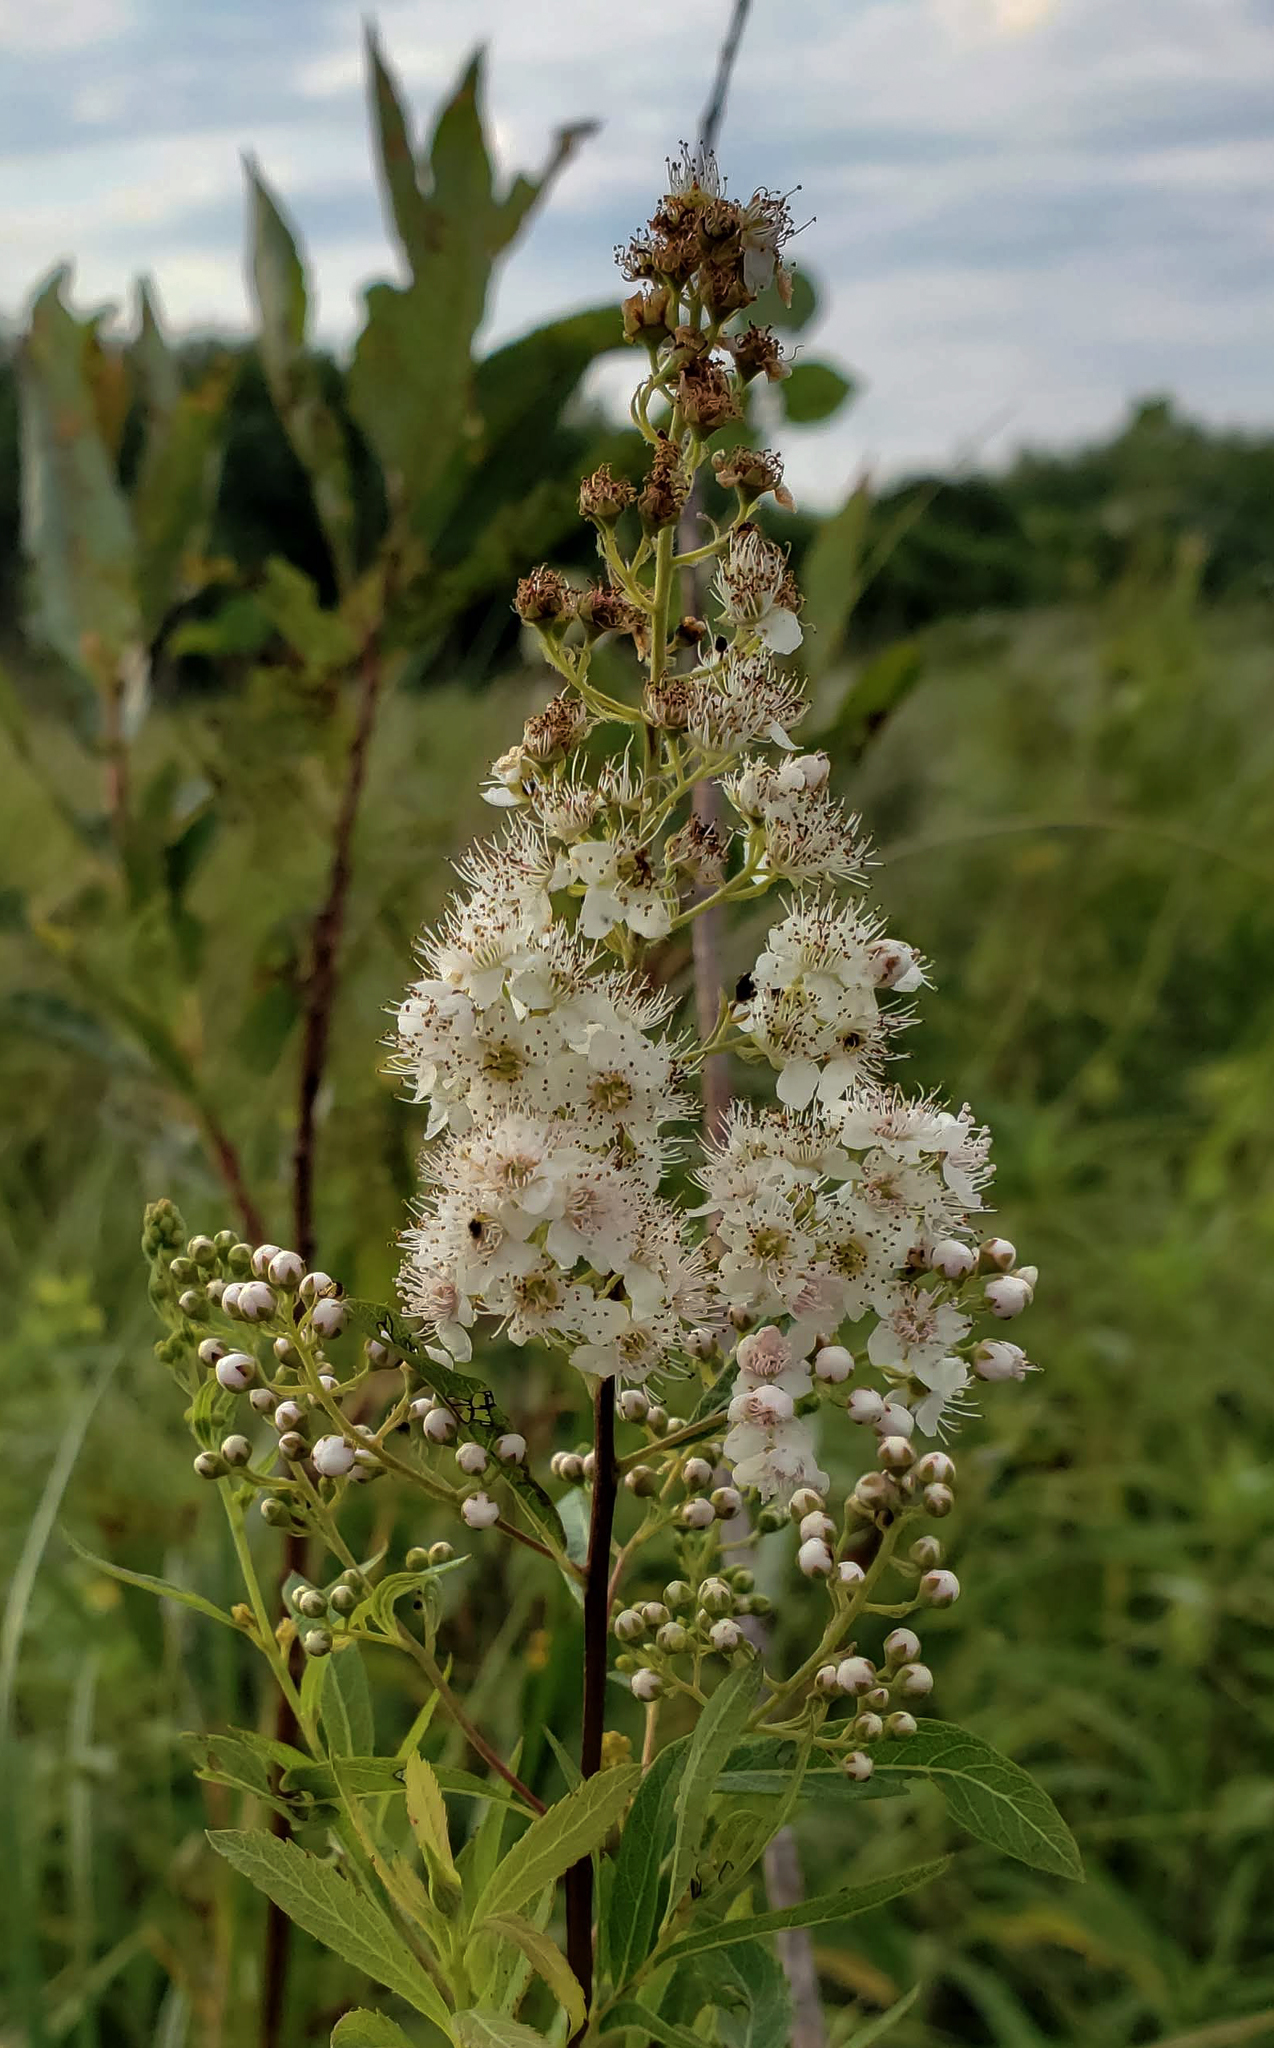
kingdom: Plantae
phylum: Tracheophyta
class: Magnoliopsida
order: Rosales
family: Rosaceae
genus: Spiraea
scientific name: Spiraea alba
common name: Pale bridewort
